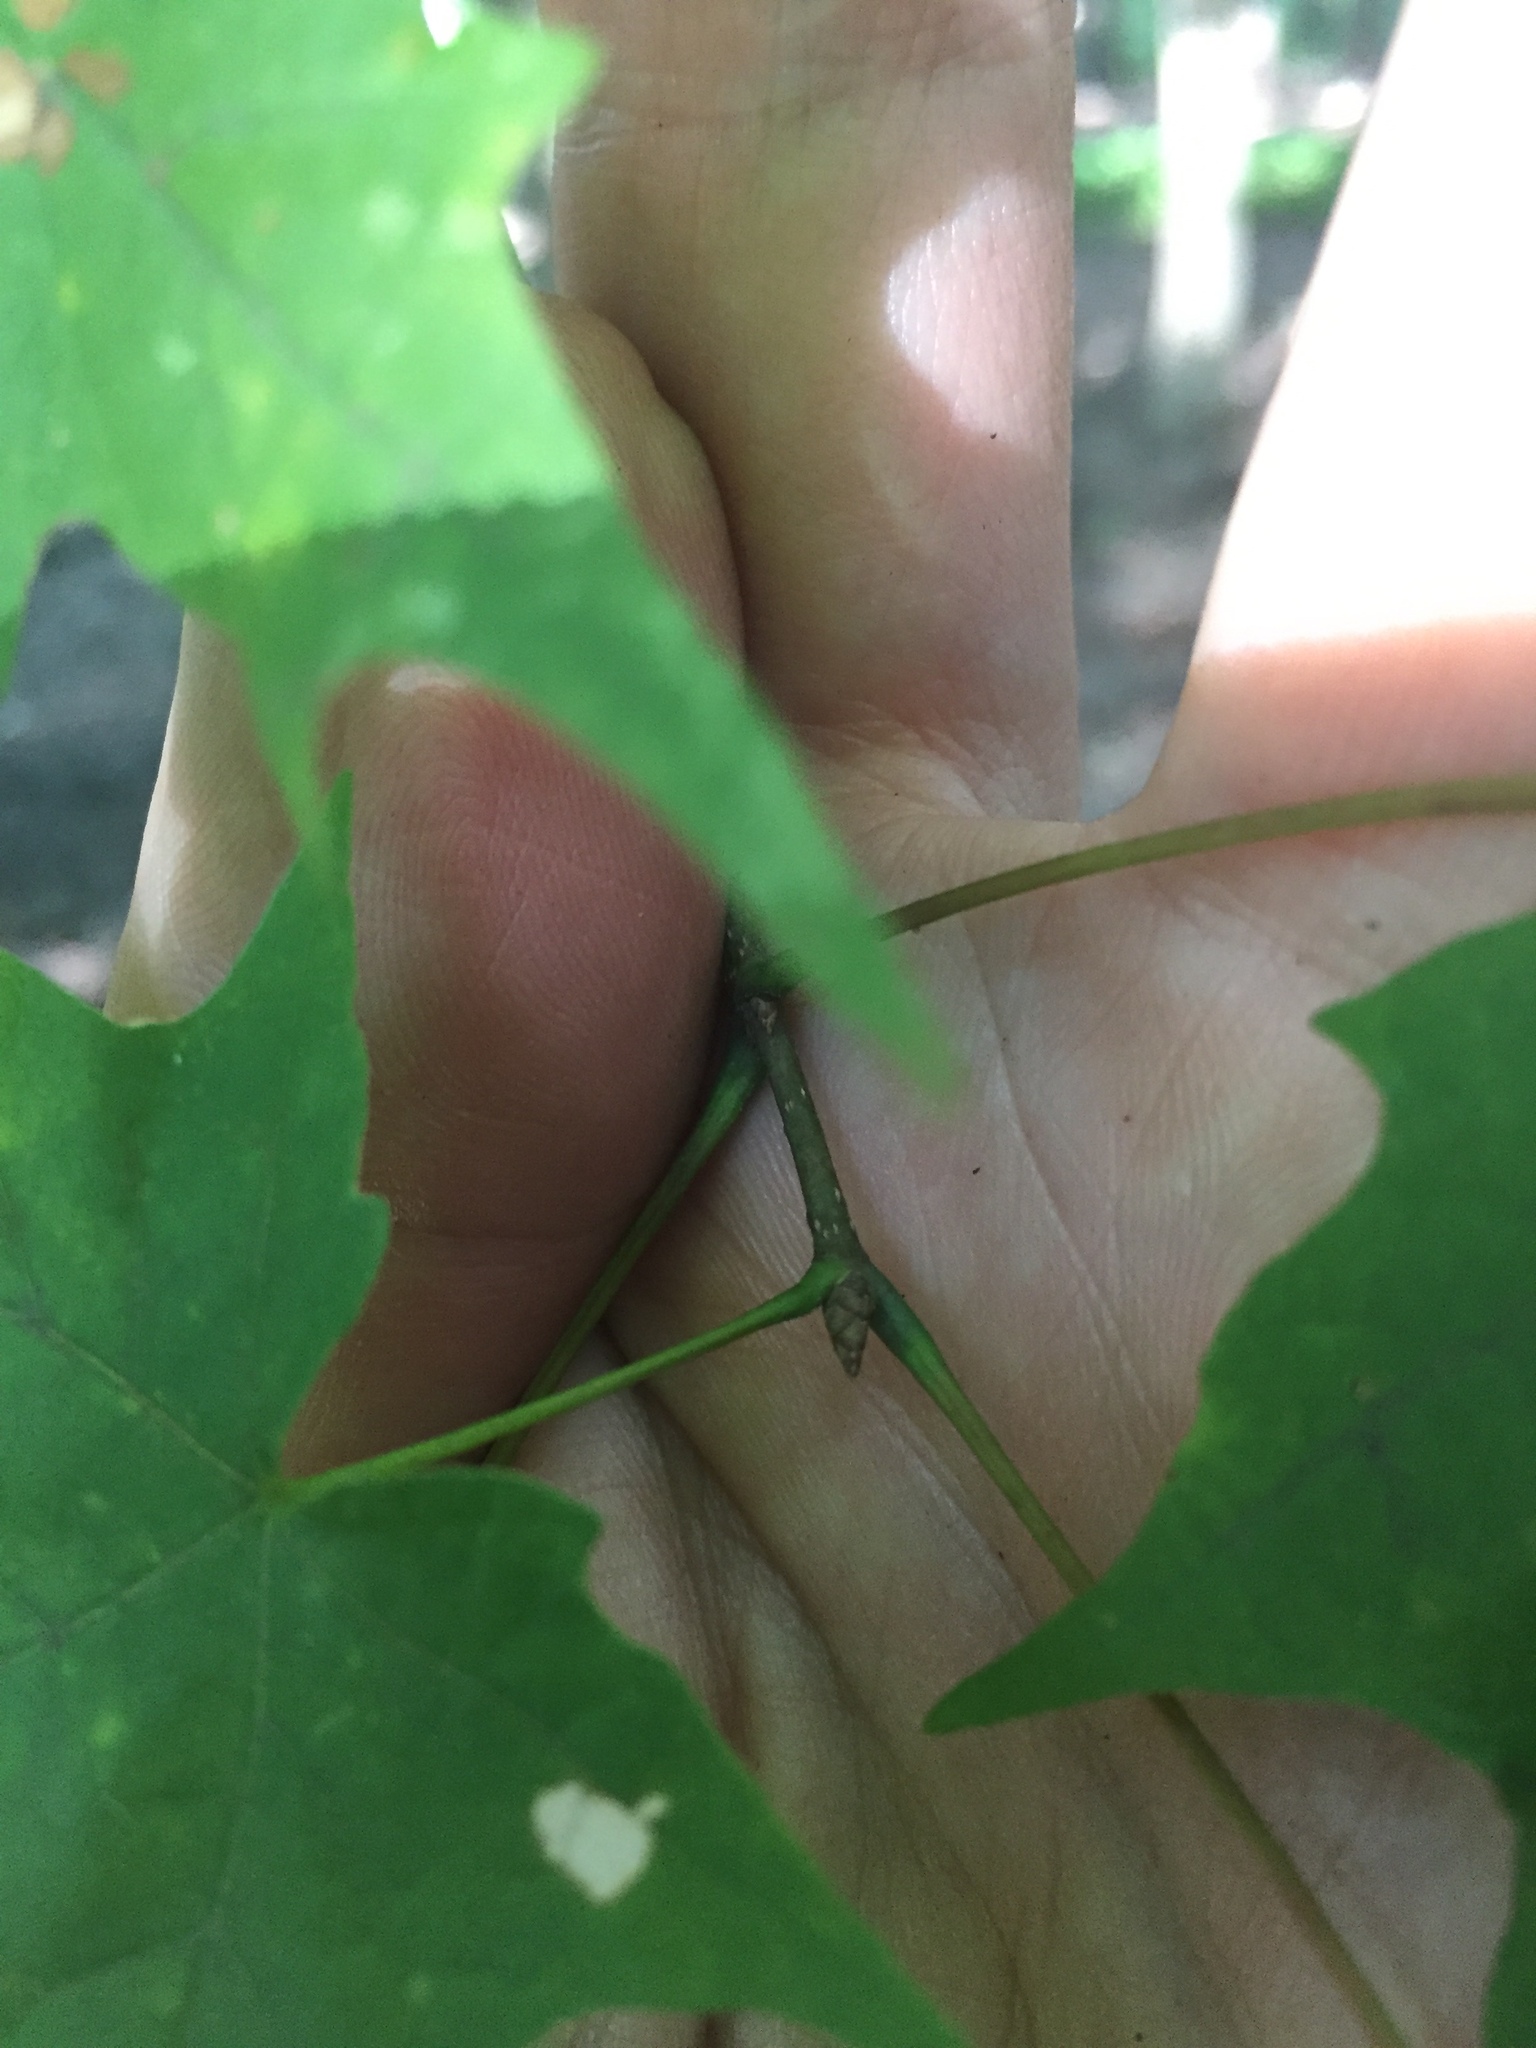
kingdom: Plantae
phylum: Tracheophyta
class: Magnoliopsida
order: Sapindales
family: Sapindaceae
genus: Acer
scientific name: Acer saccharum
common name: Sugar maple
